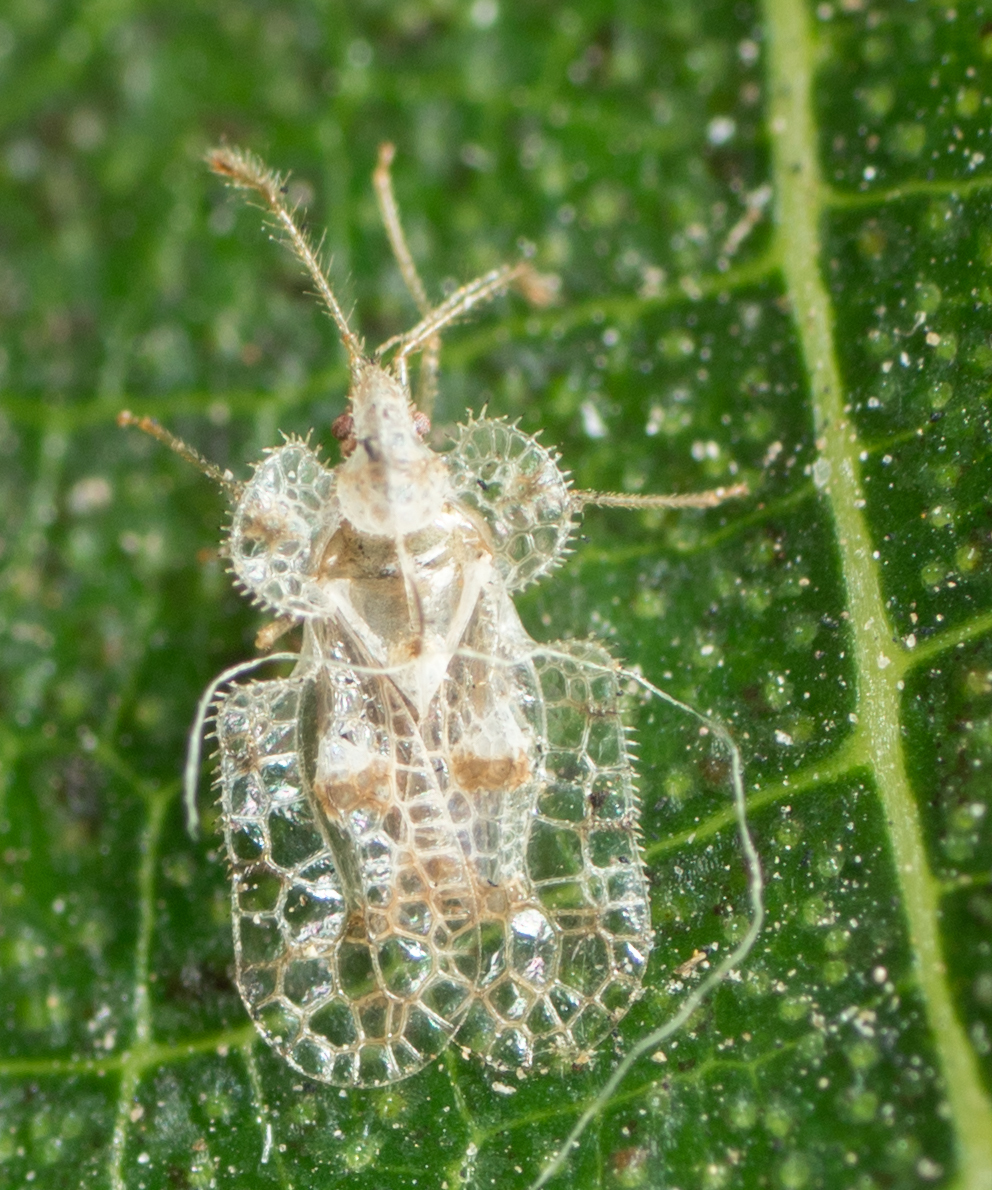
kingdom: Animalia
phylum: Arthropoda
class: Insecta
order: Hemiptera
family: Tingidae
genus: Corythucha
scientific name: Corythucha gossypii
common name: Cotton lace bug
